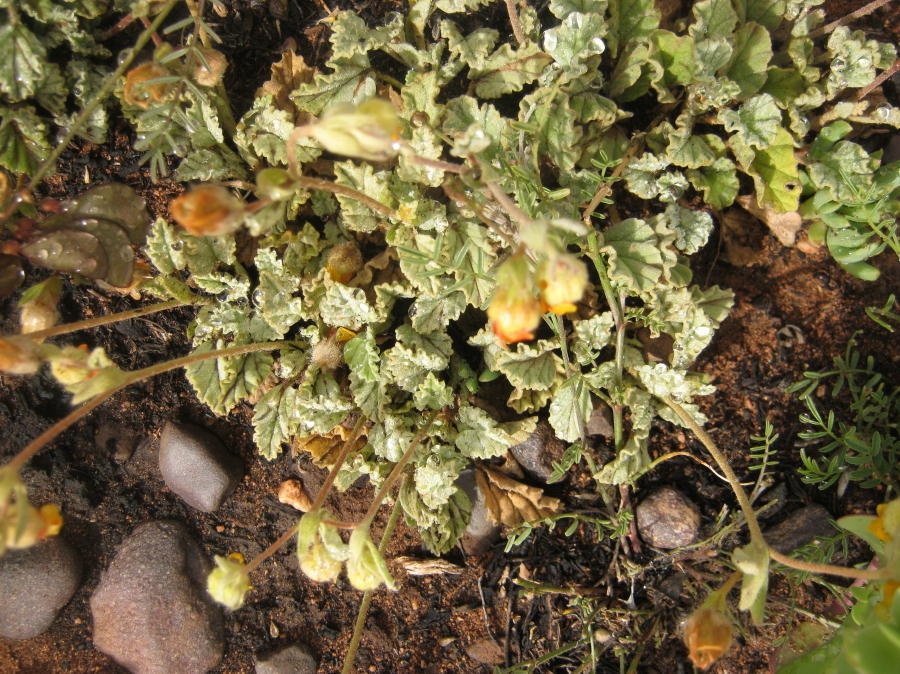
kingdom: Plantae
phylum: Tracheophyta
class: Magnoliopsida
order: Malvales
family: Malvaceae
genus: Hermannia
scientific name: Hermannia althaeifolia
